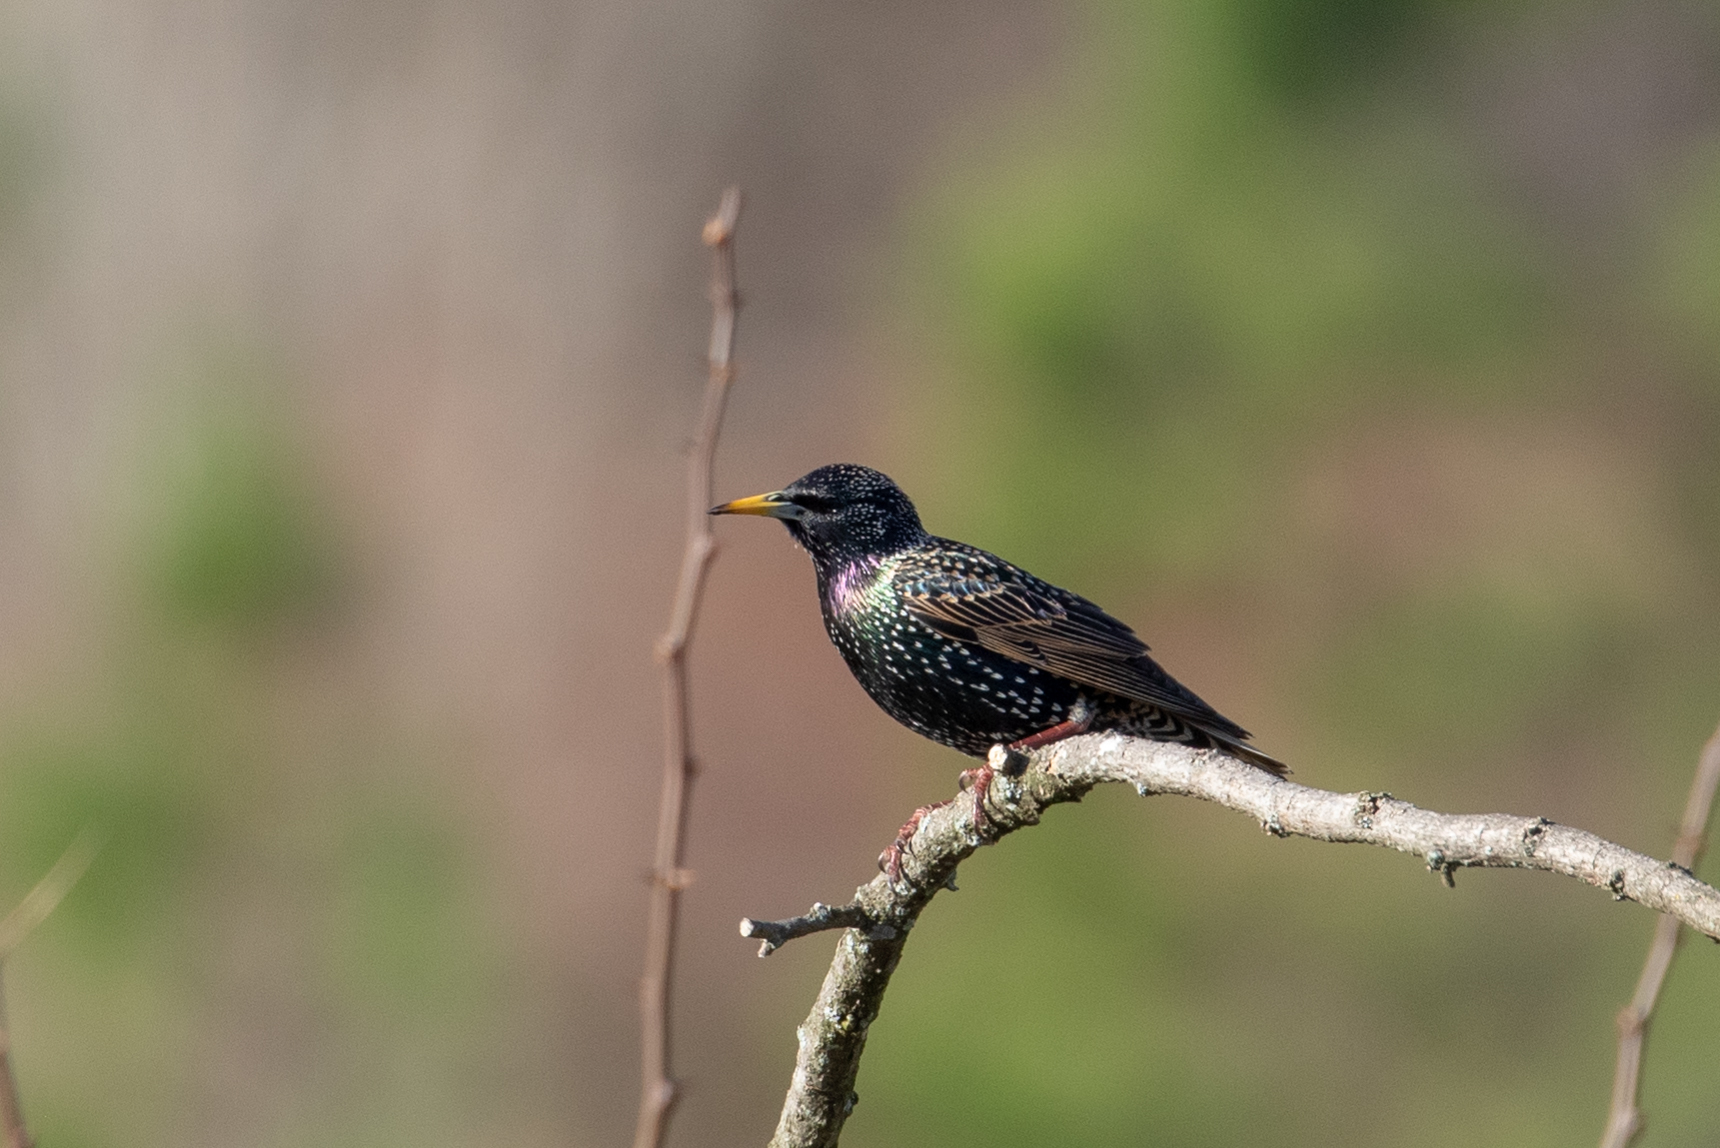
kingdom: Animalia
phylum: Chordata
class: Aves
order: Passeriformes
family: Sturnidae
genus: Sturnus
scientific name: Sturnus vulgaris
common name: Common starling
